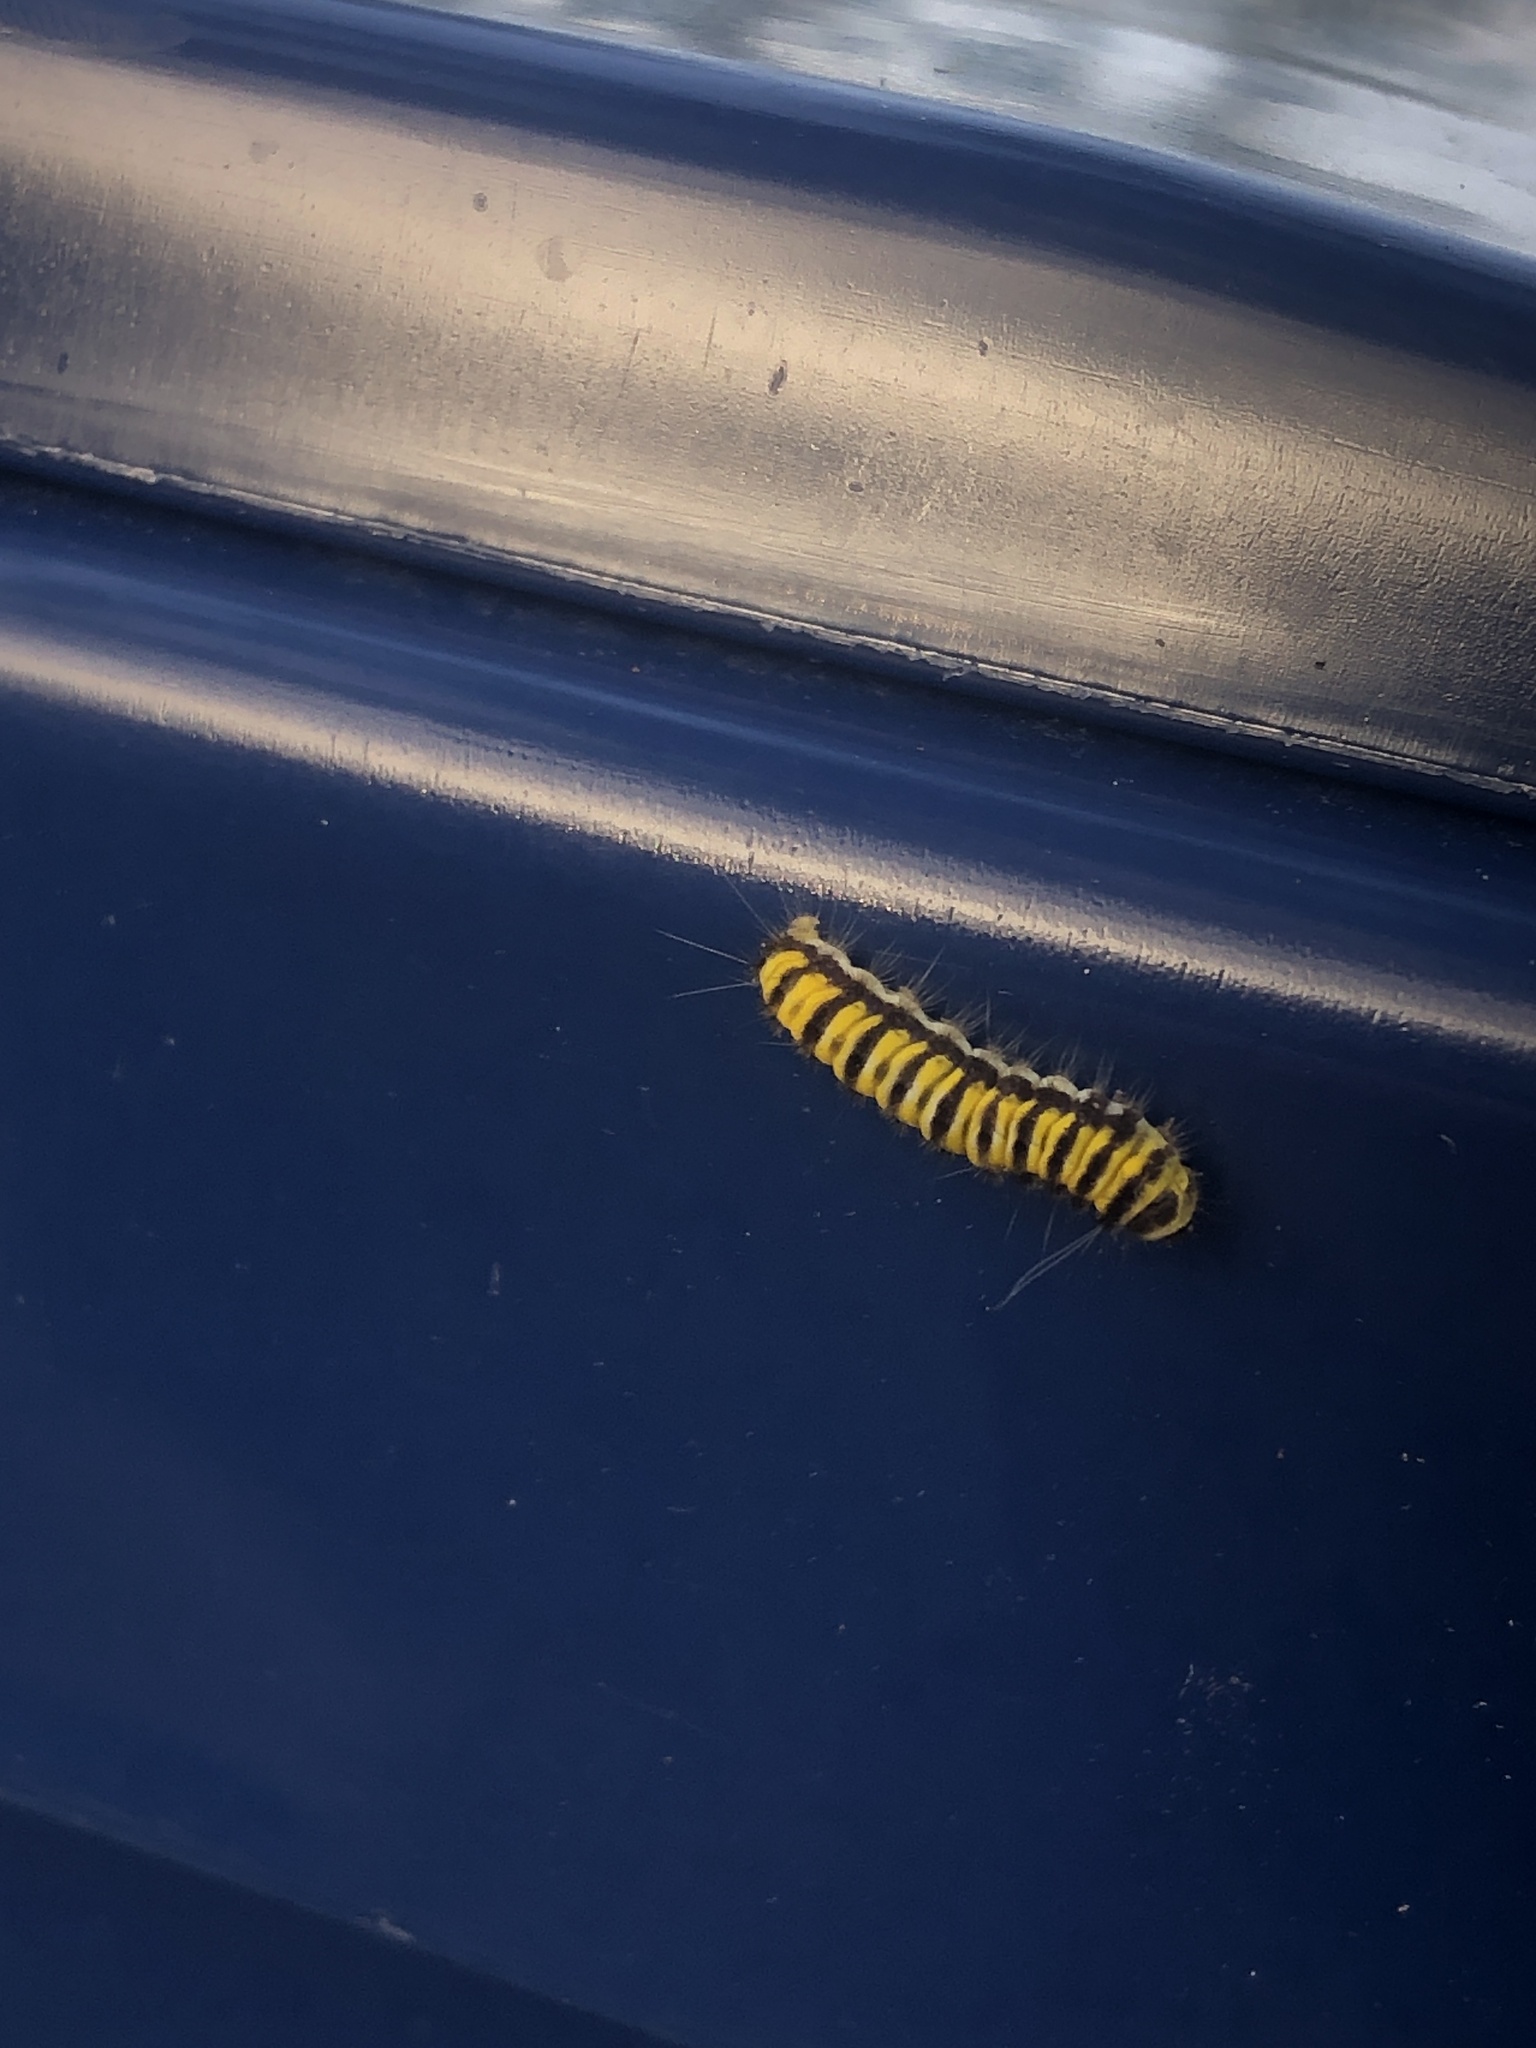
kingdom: Animalia
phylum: Arthropoda
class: Insecta
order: Lepidoptera
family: Zygaenidae
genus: Harrisina
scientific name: Harrisina americana
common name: Grapeleaf skeletonizer moth
